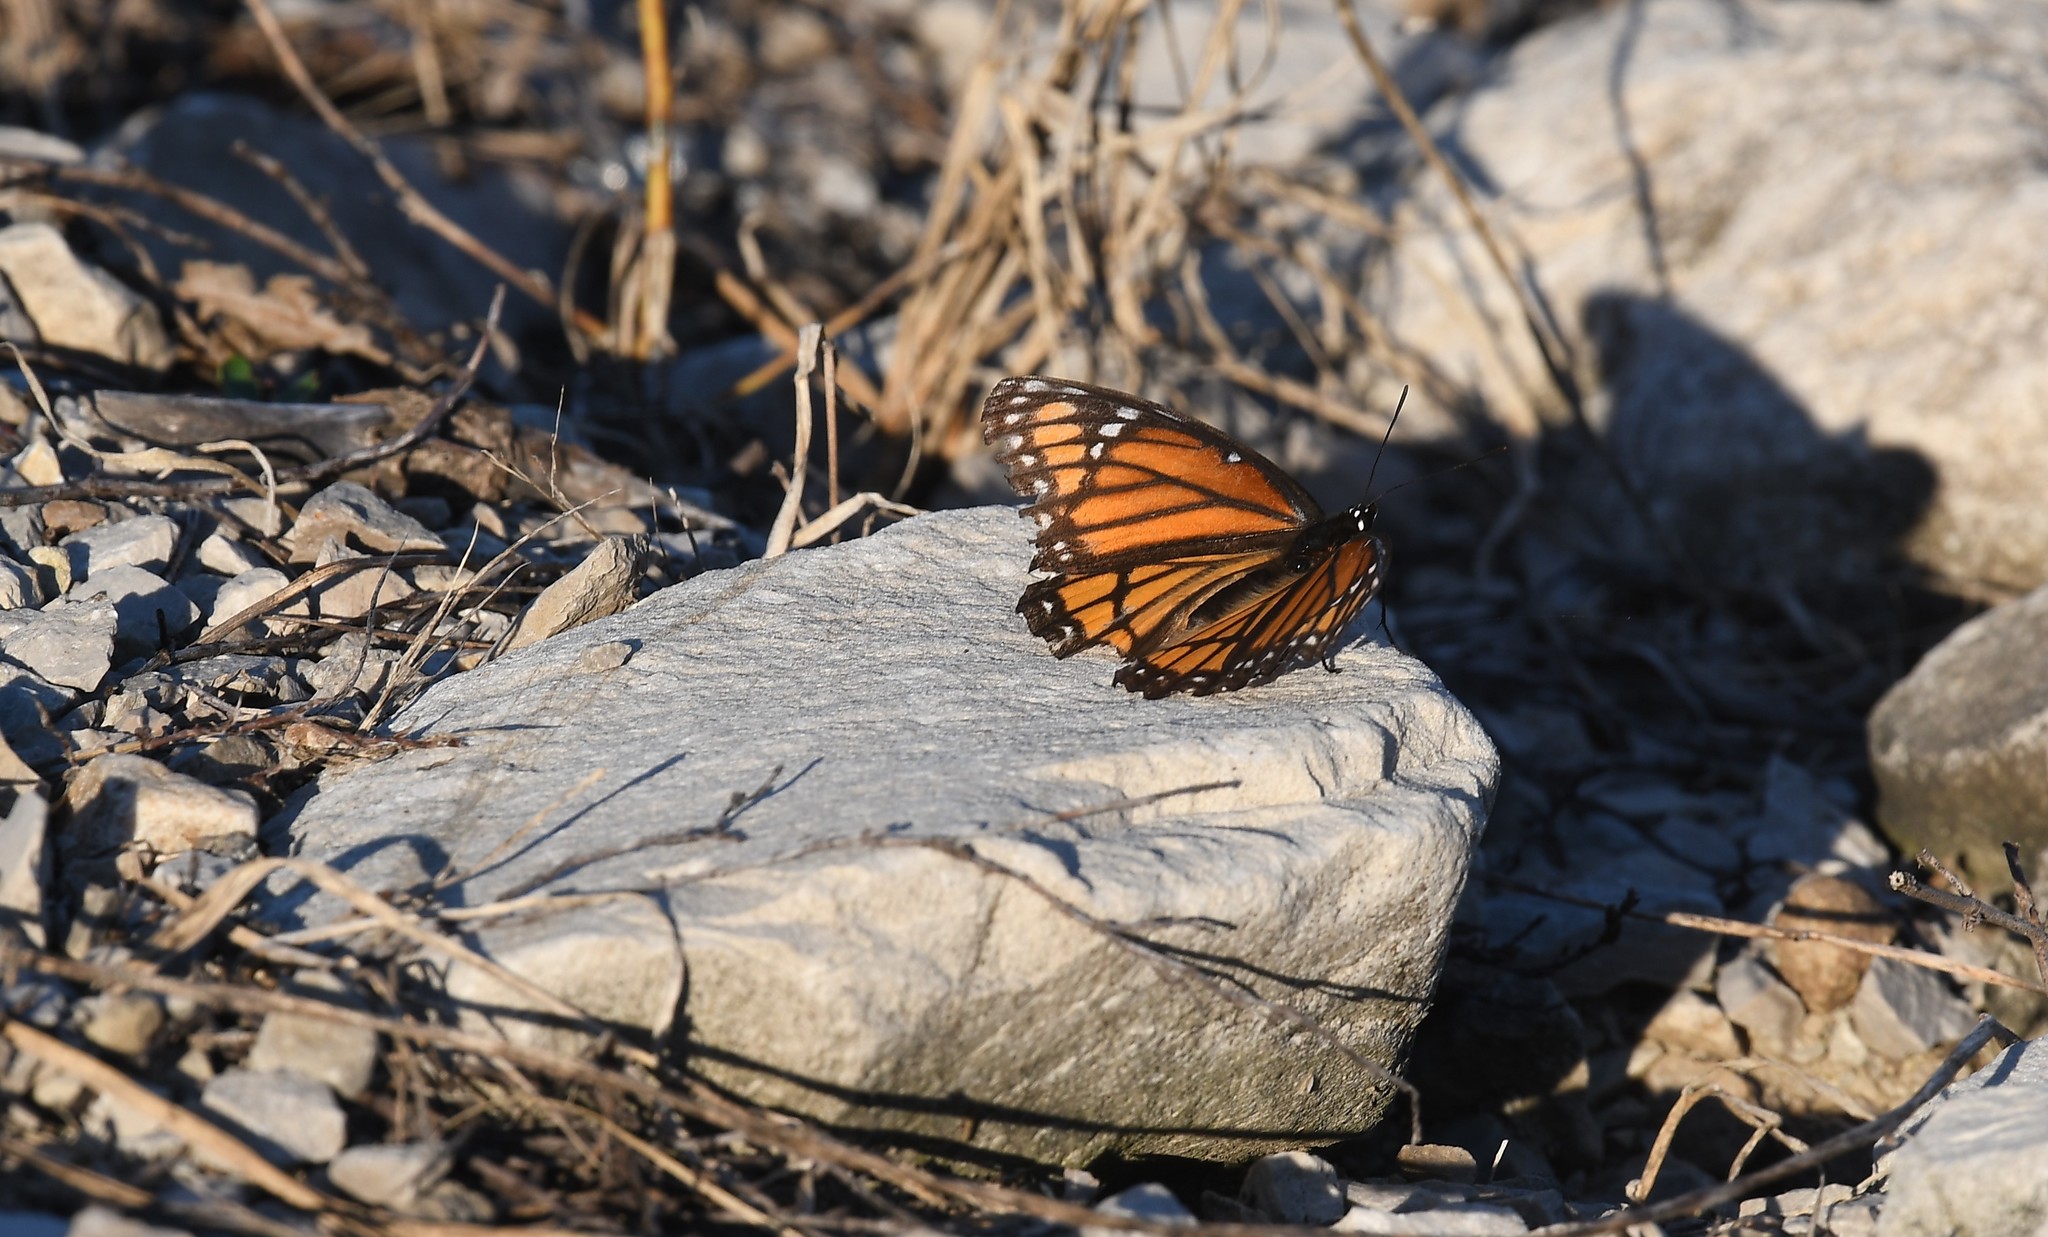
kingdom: Animalia
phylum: Arthropoda
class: Insecta
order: Lepidoptera
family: Nymphalidae
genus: Limenitis
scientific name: Limenitis archippus
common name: Viceroy
